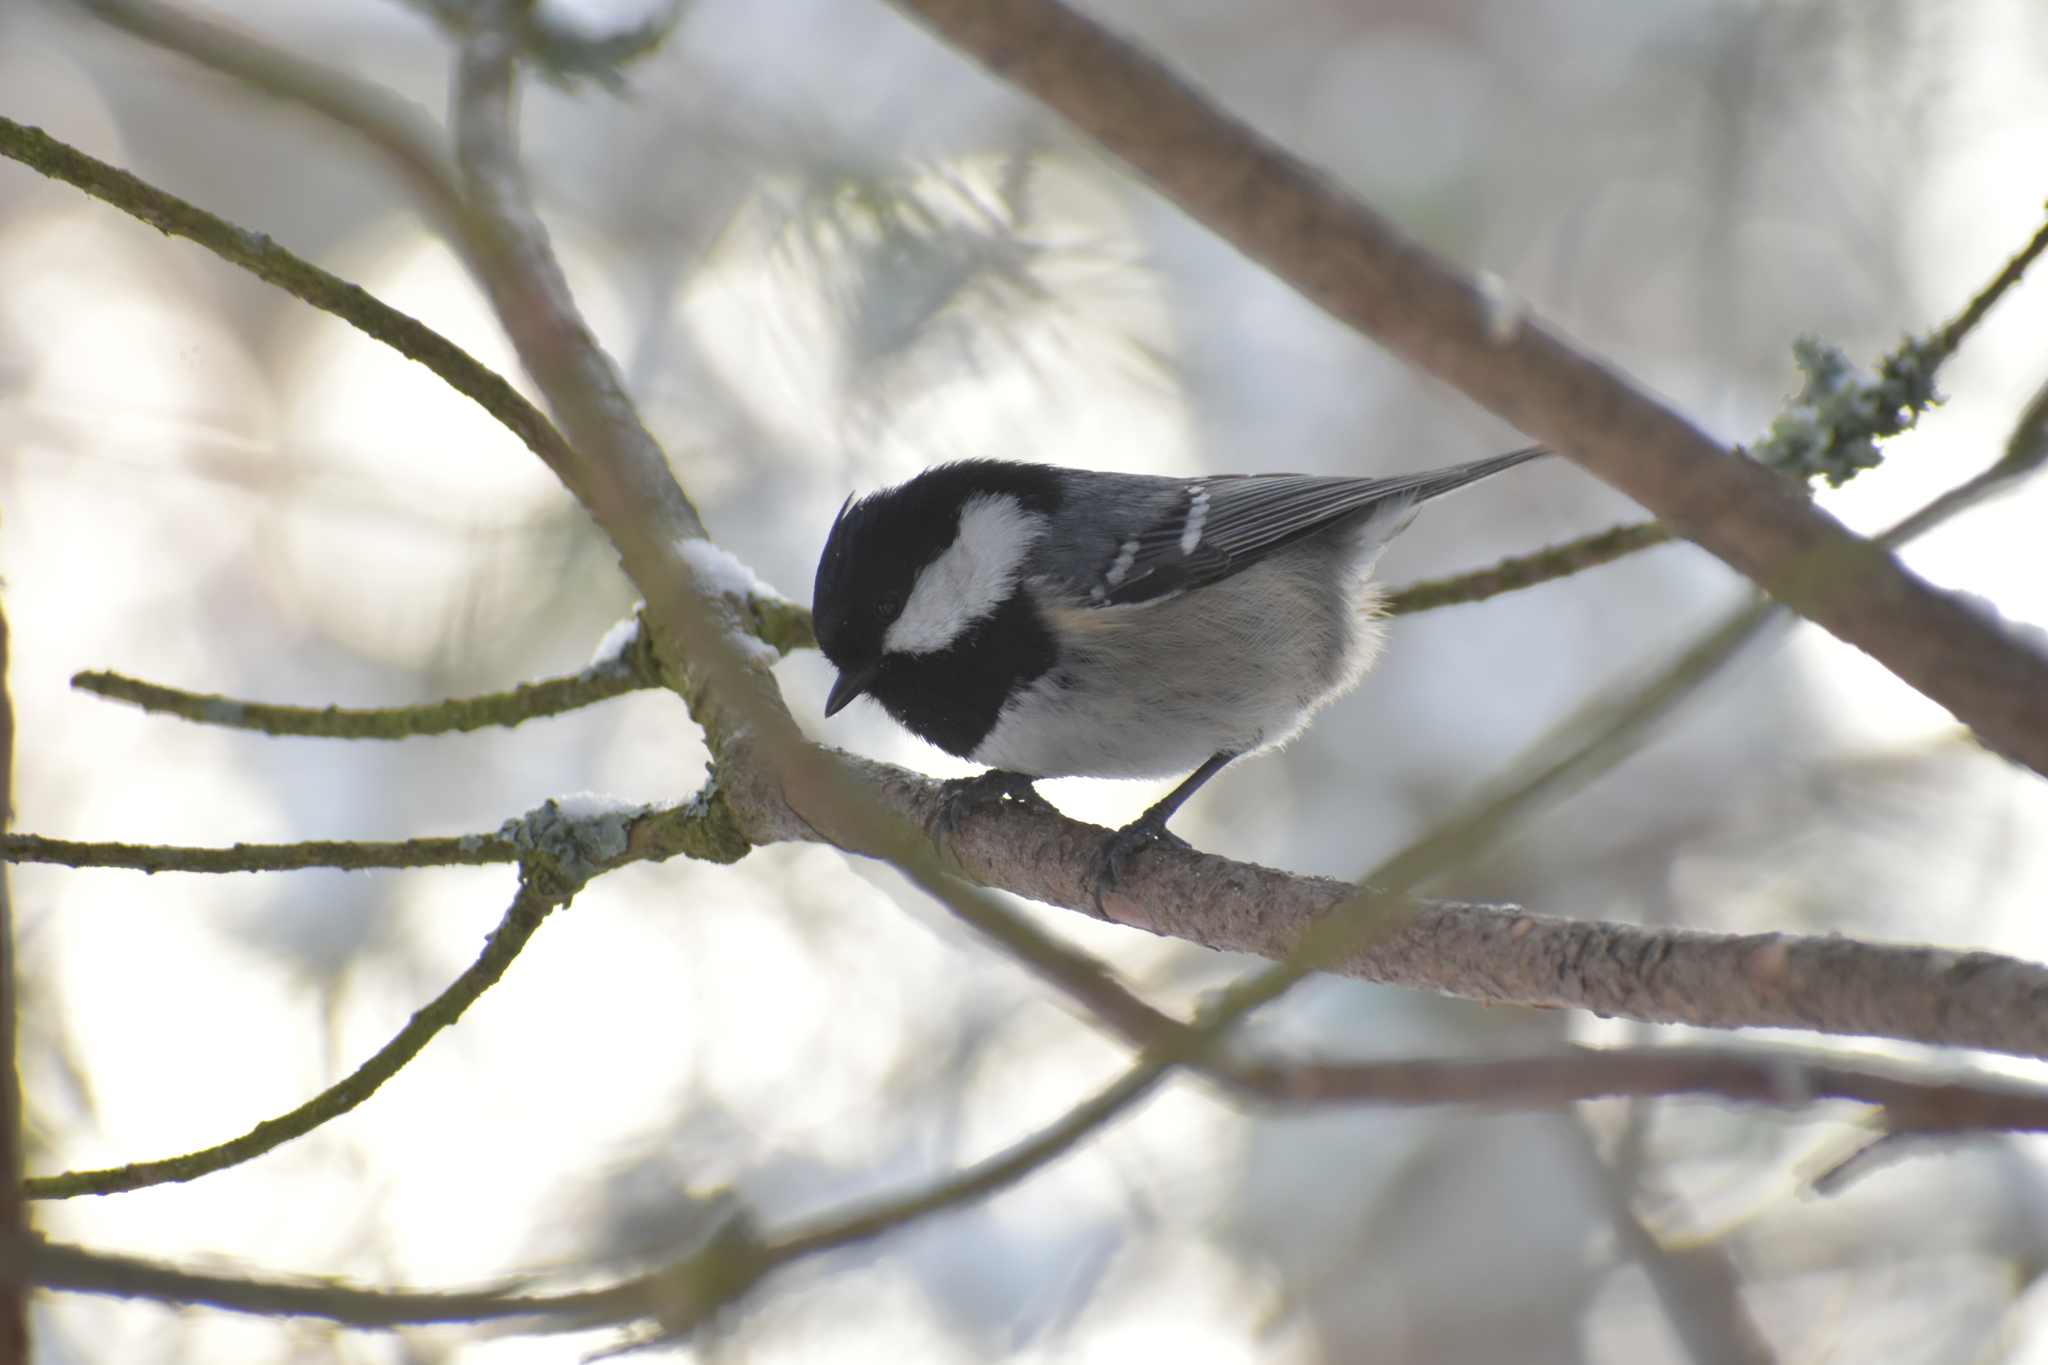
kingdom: Animalia
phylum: Chordata
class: Aves
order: Passeriformes
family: Paridae
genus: Periparus
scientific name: Periparus ater
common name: Coal tit
